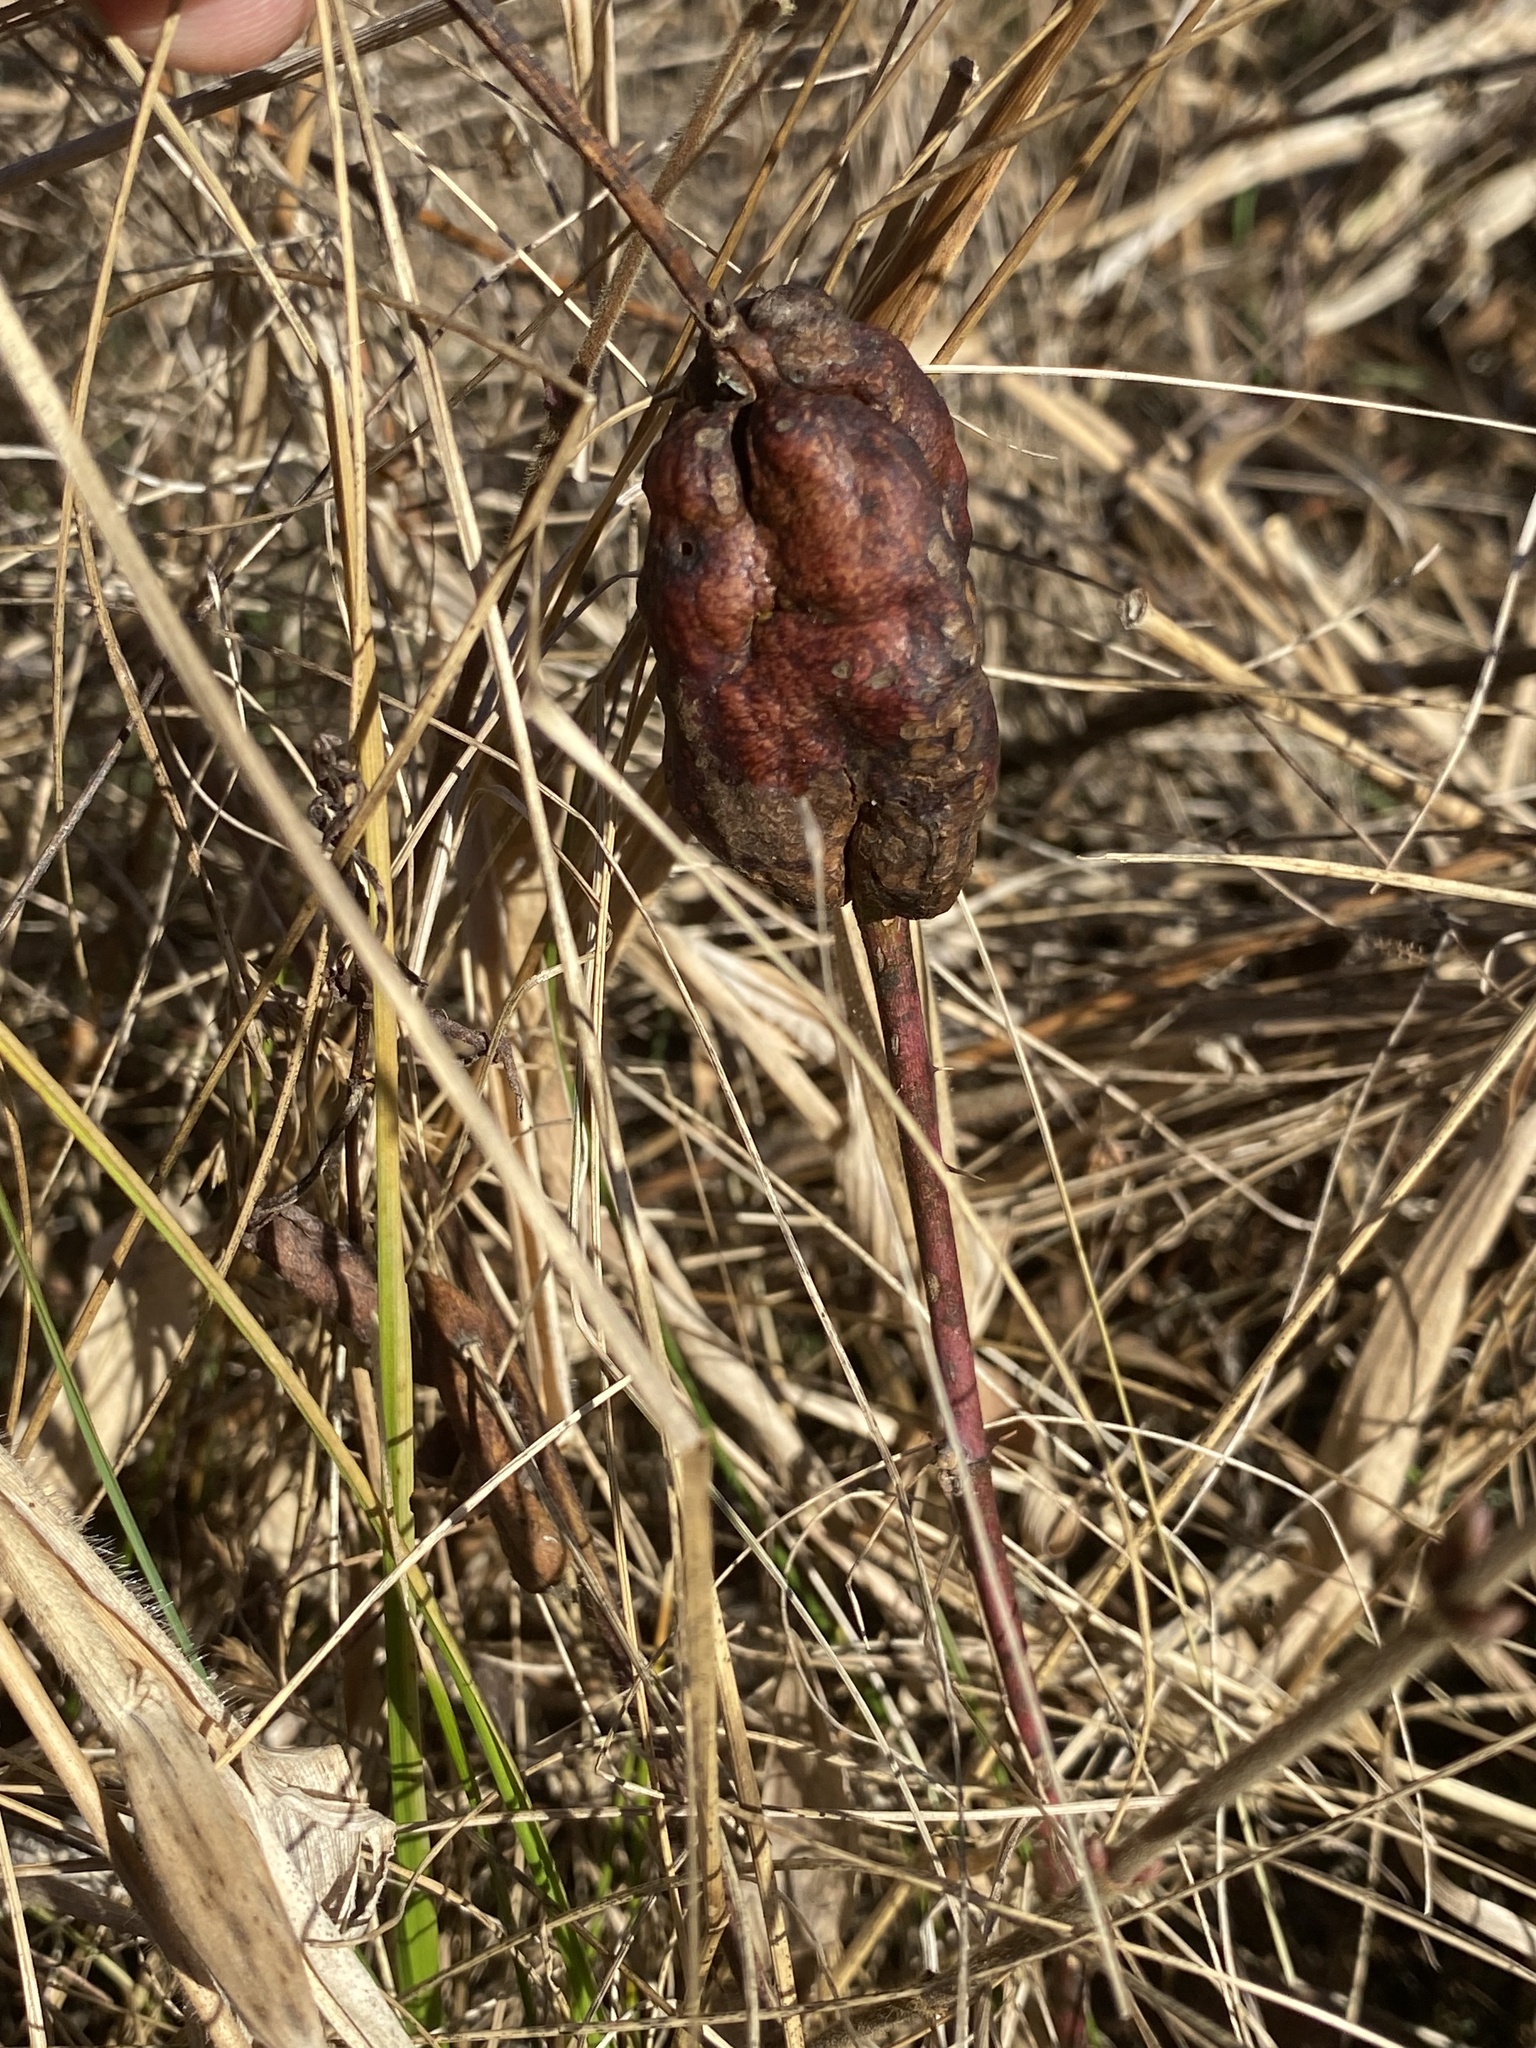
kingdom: Animalia
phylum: Arthropoda
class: Insecta
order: Hymenoptera
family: Cynipidae
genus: Diastrophus
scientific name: Diastrophus
